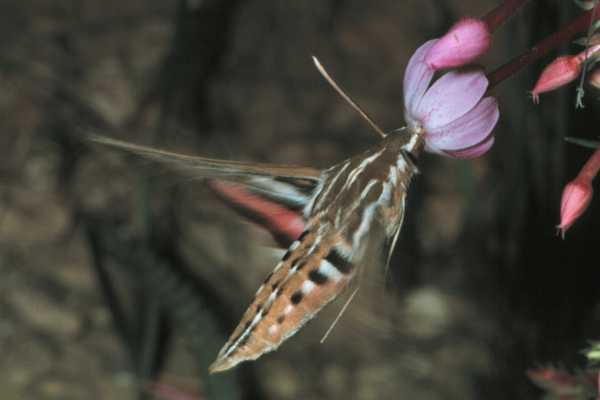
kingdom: Animalia
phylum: Arthropoda
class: Insecta
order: Lepidoptera
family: Sphingidae
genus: Hyles
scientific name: Hyles lineata
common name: White-lined sphinx
